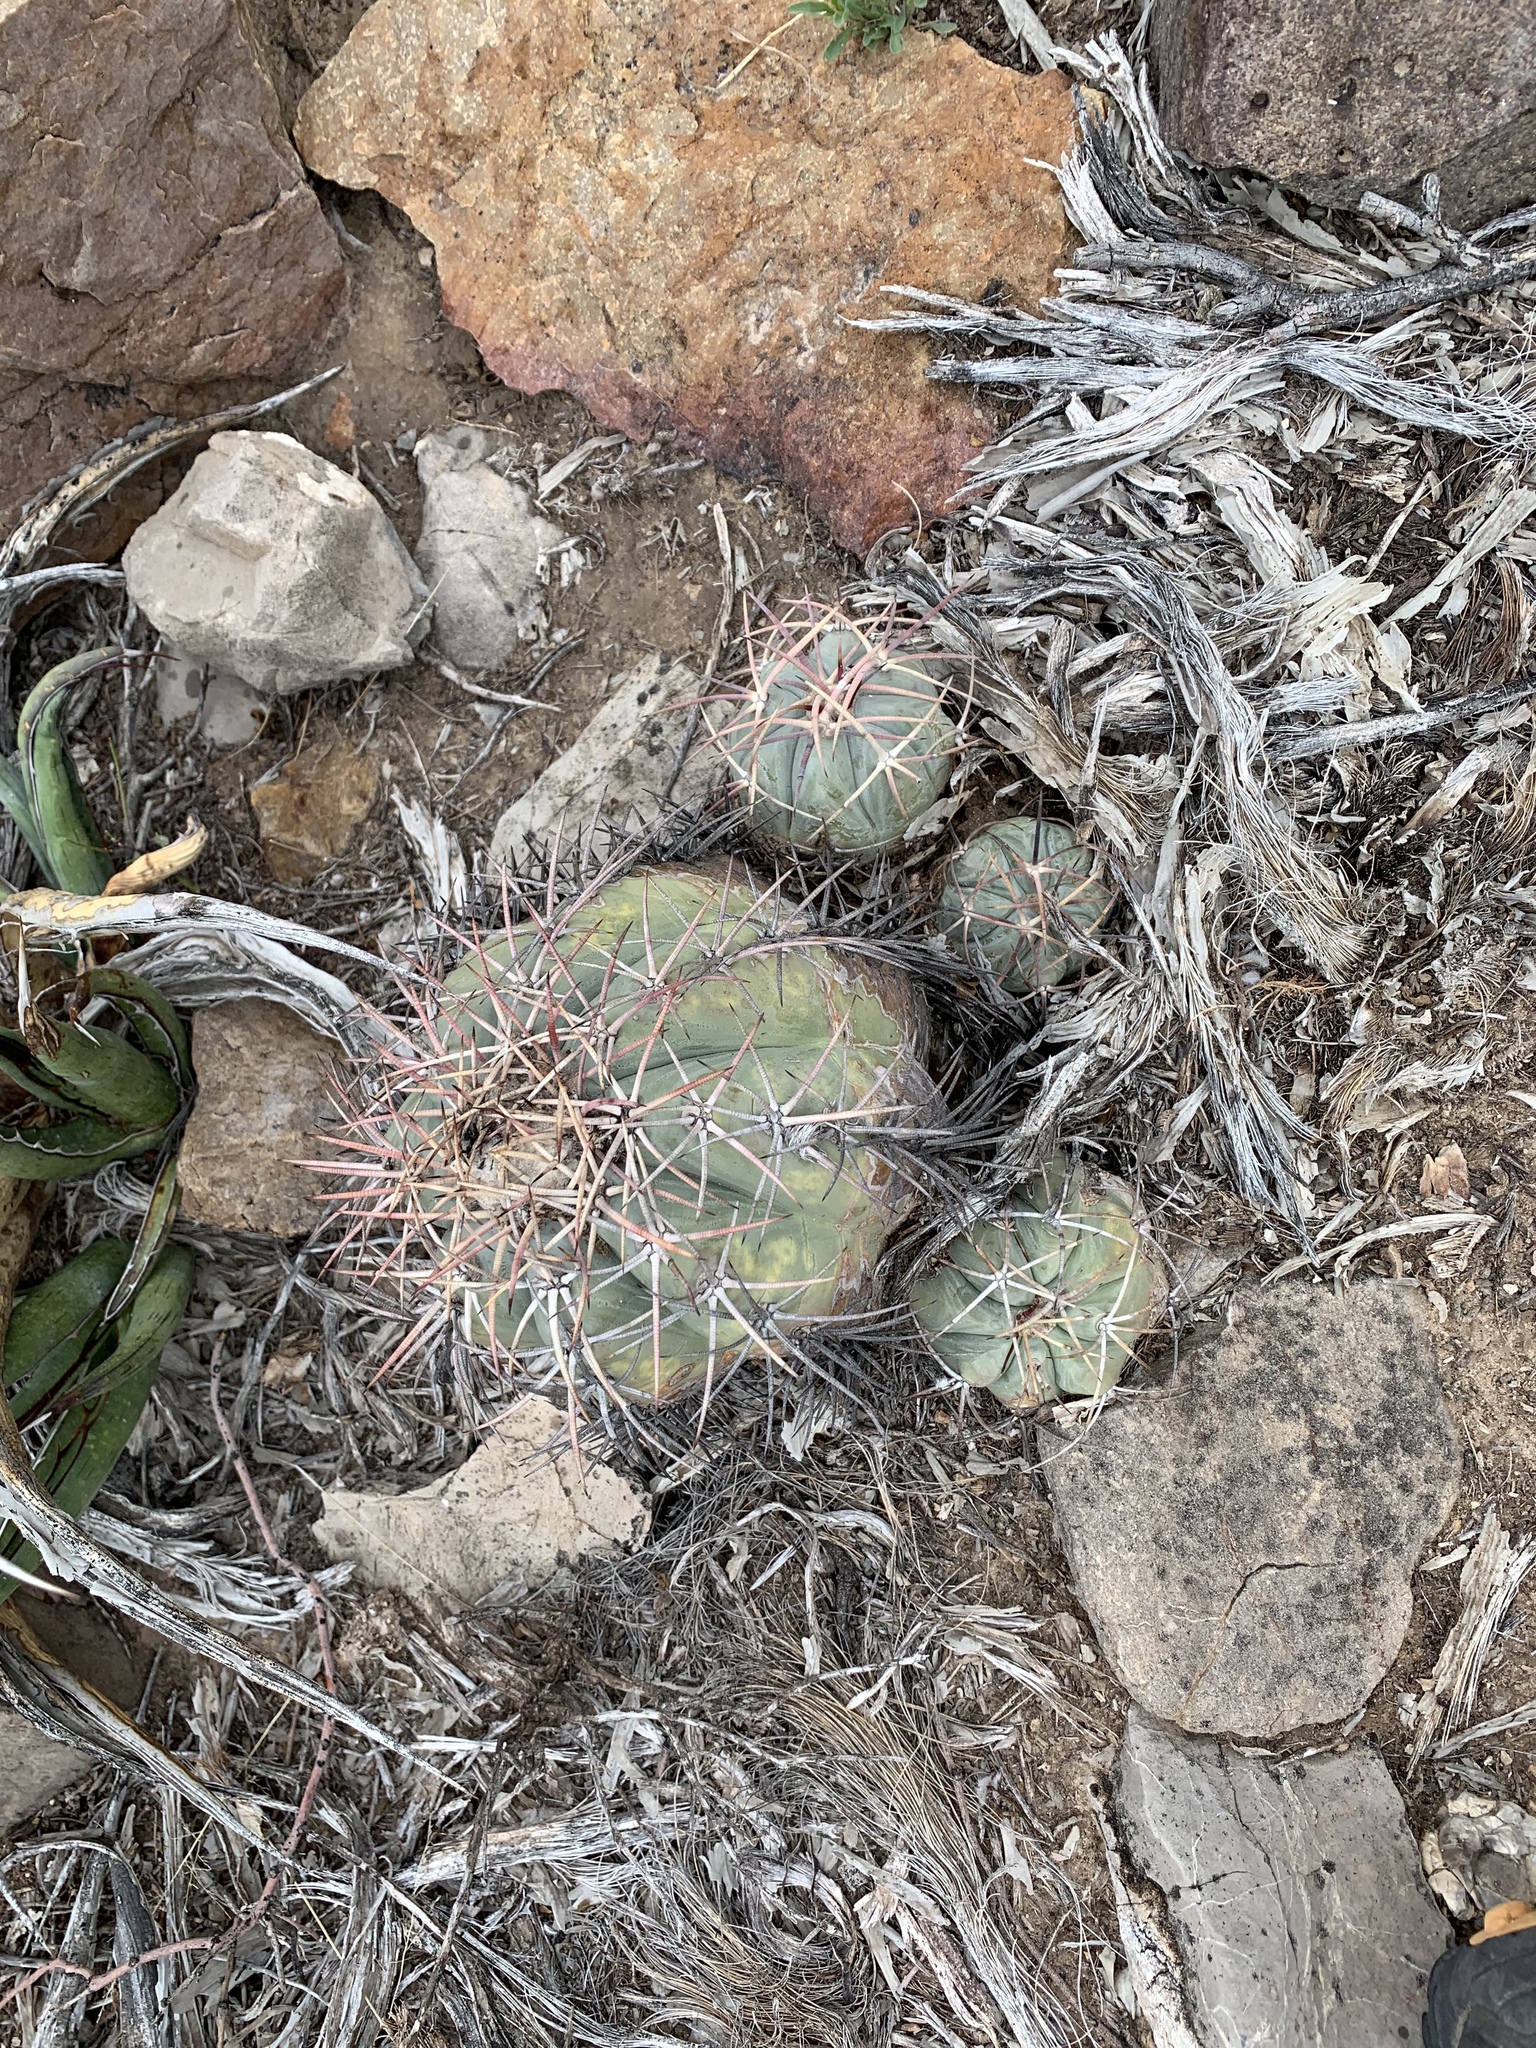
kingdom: Plantae
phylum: Tracheophyta
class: Magnoliopsida
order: Caryophyllales
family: Cactaceae
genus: Echinocactus
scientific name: Echinocactus horizonthalonius
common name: Devilshead
